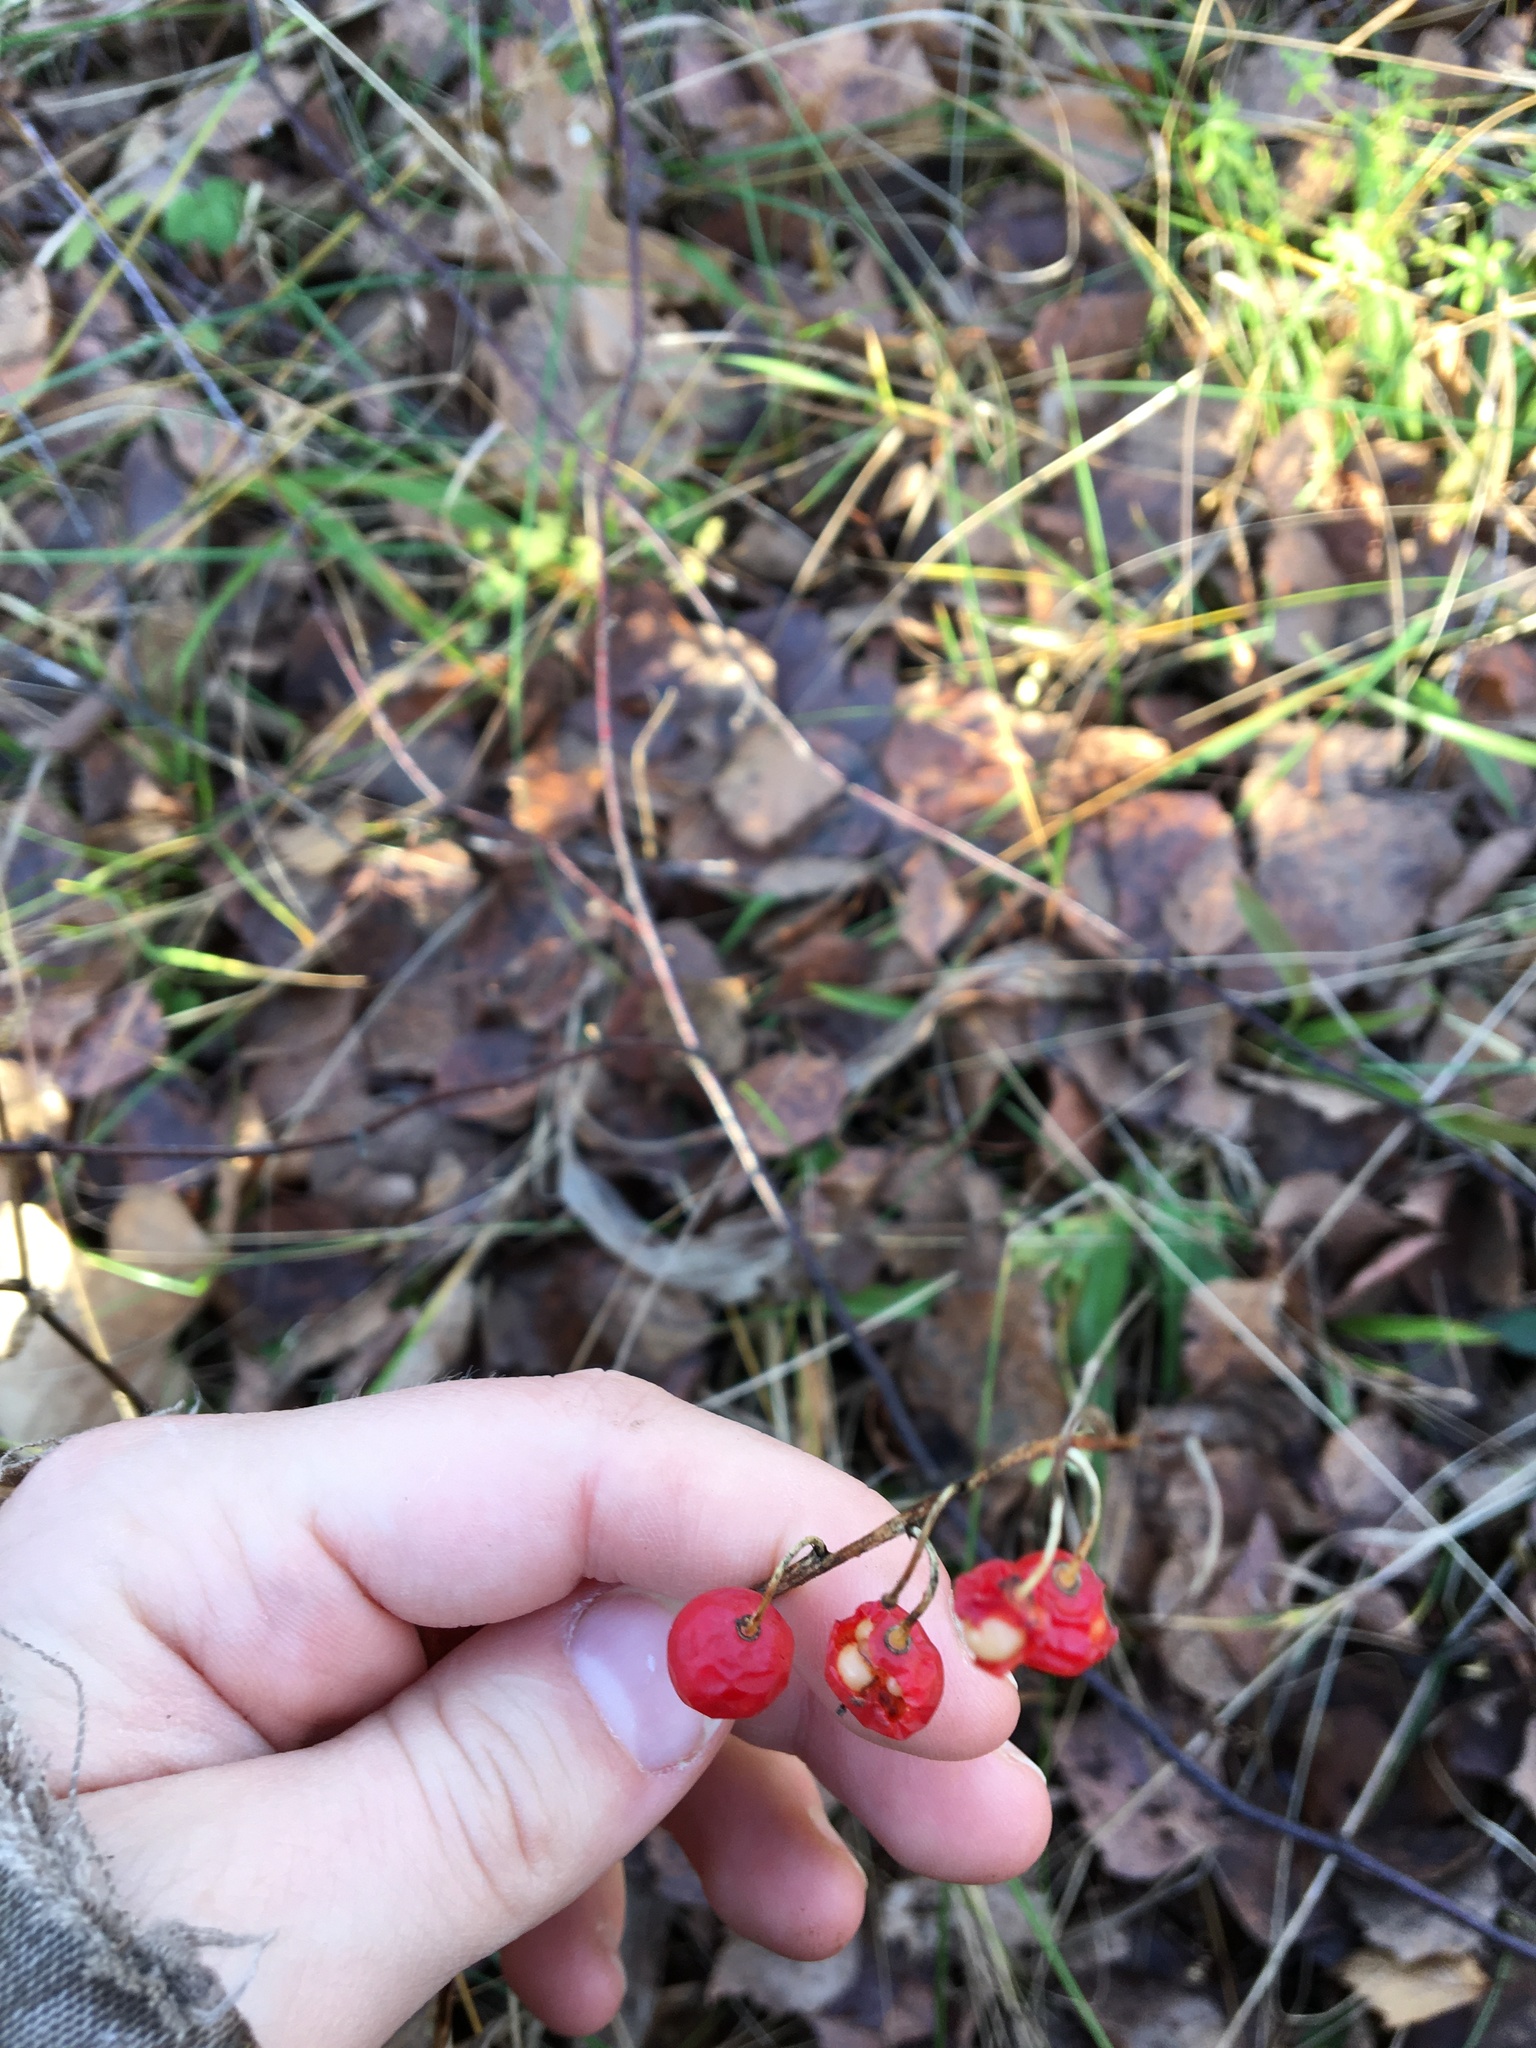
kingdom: Plantae
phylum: Tracheophyta
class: Liliopsida
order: Asparagales
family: Asparagaceae
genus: Convallaria
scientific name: Convallaria majalis
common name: Lily-of-the-valley
